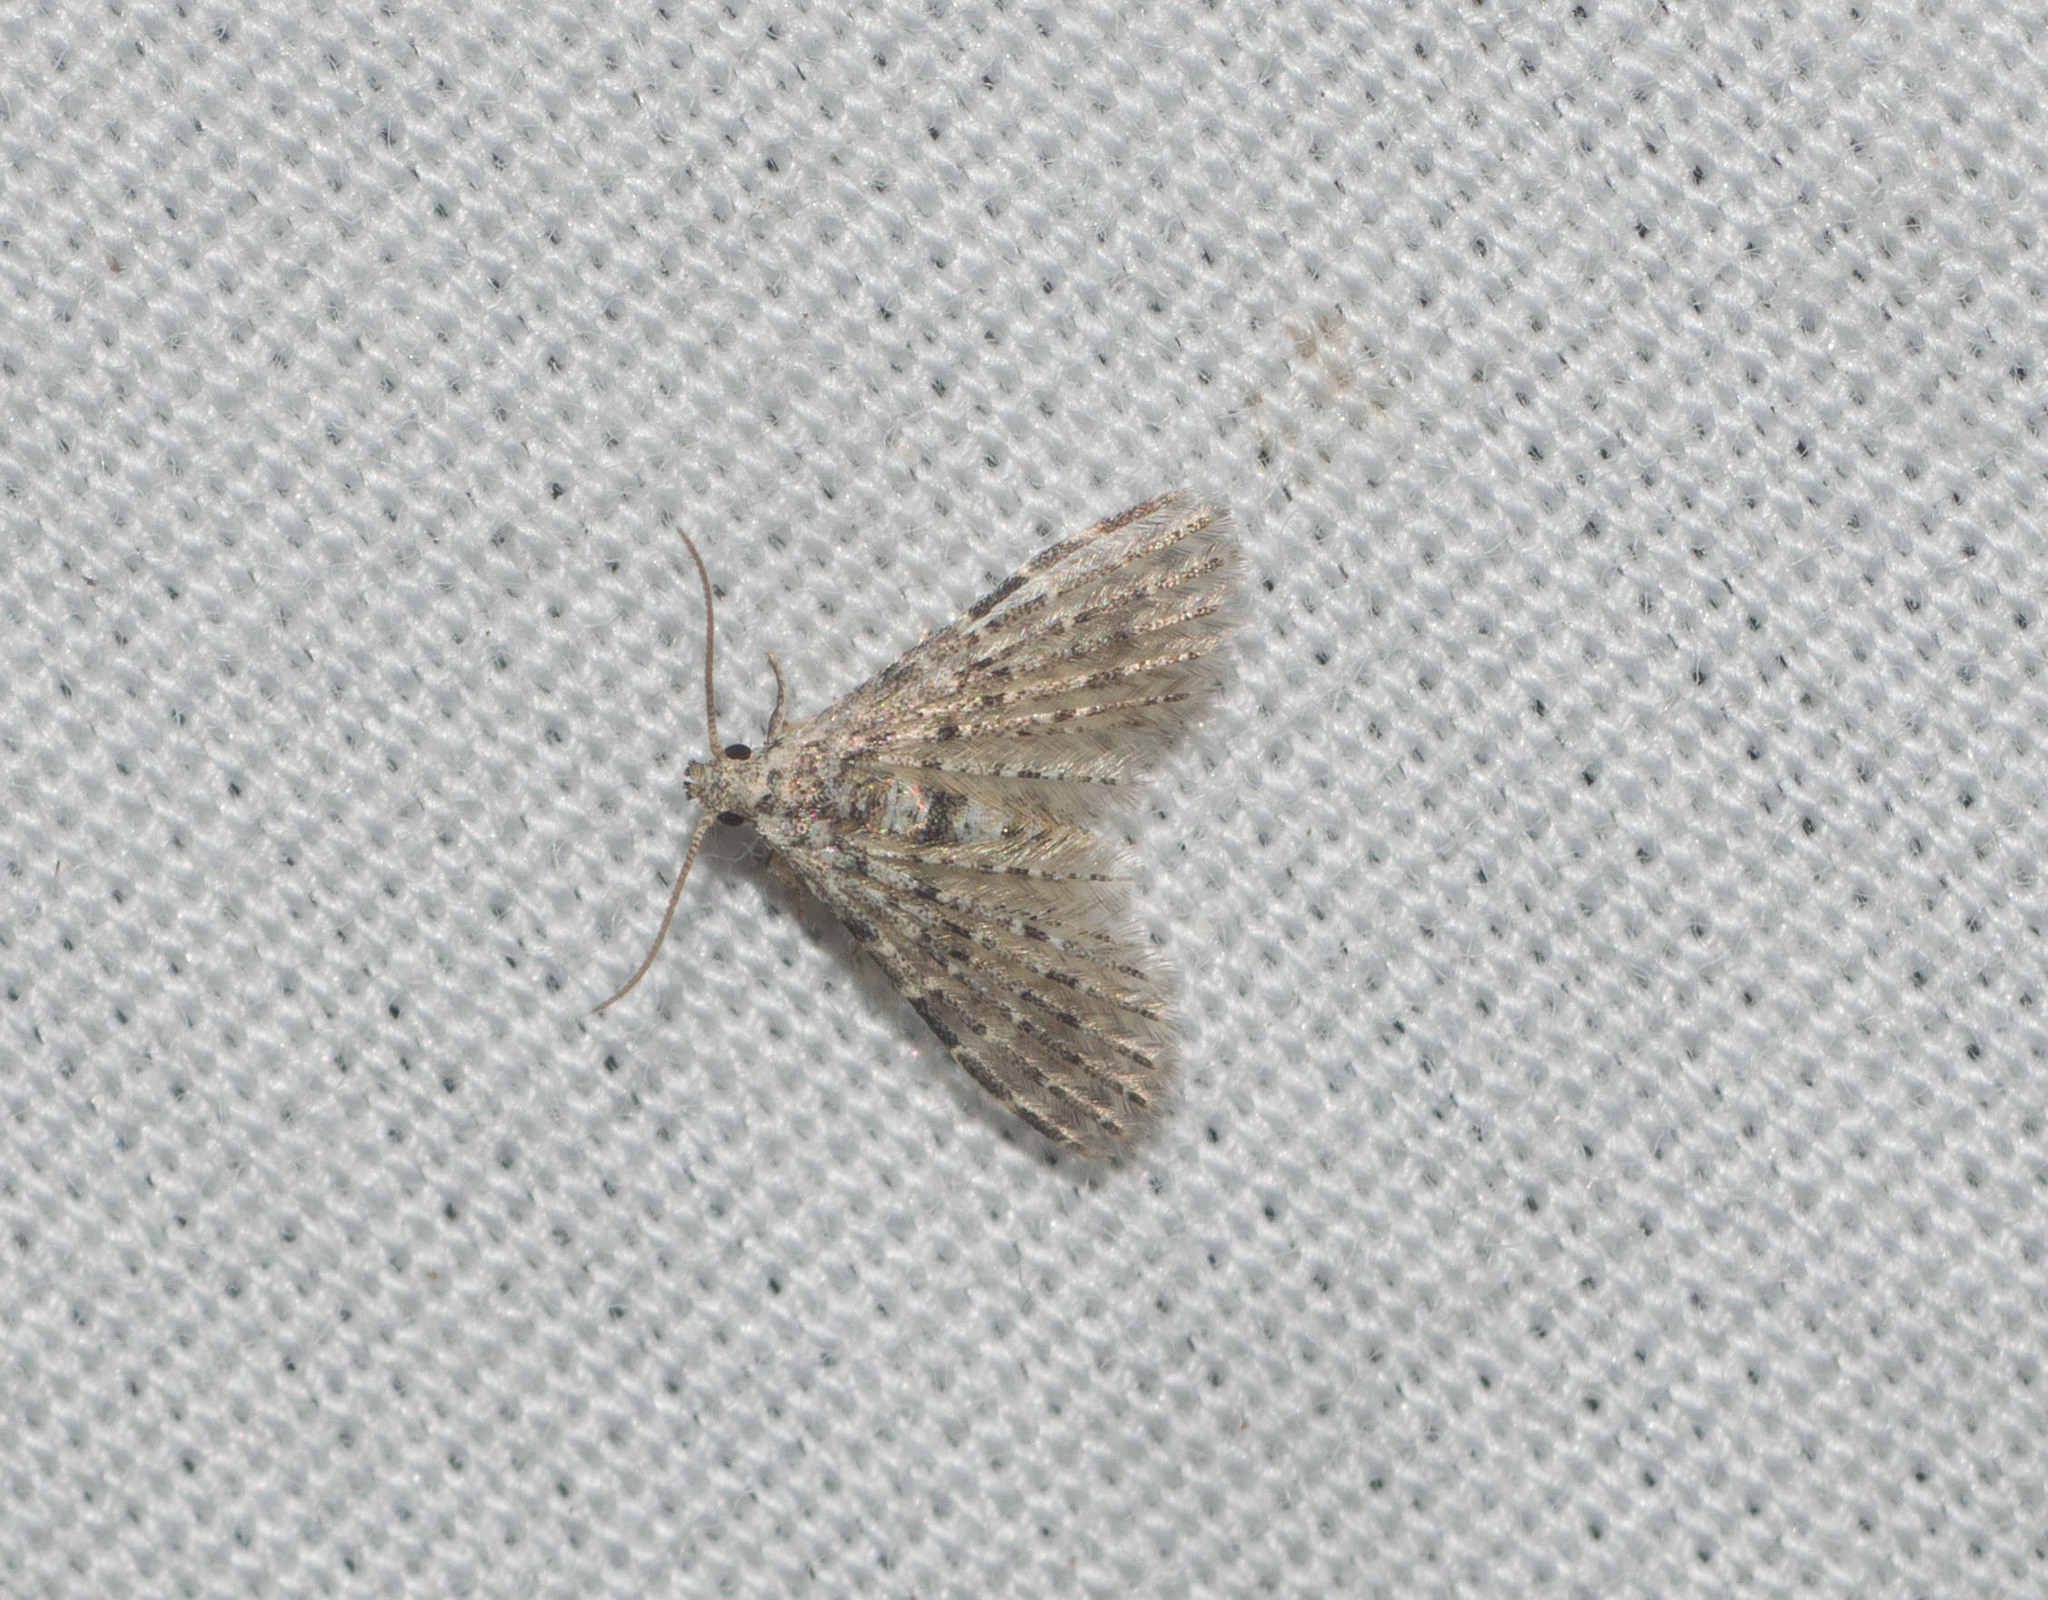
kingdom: Animalia
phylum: Arthropoda
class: Insecta
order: Lepidoptera
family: Alucitidae
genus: Alucita
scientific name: Alucita objurgatella
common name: Moth
